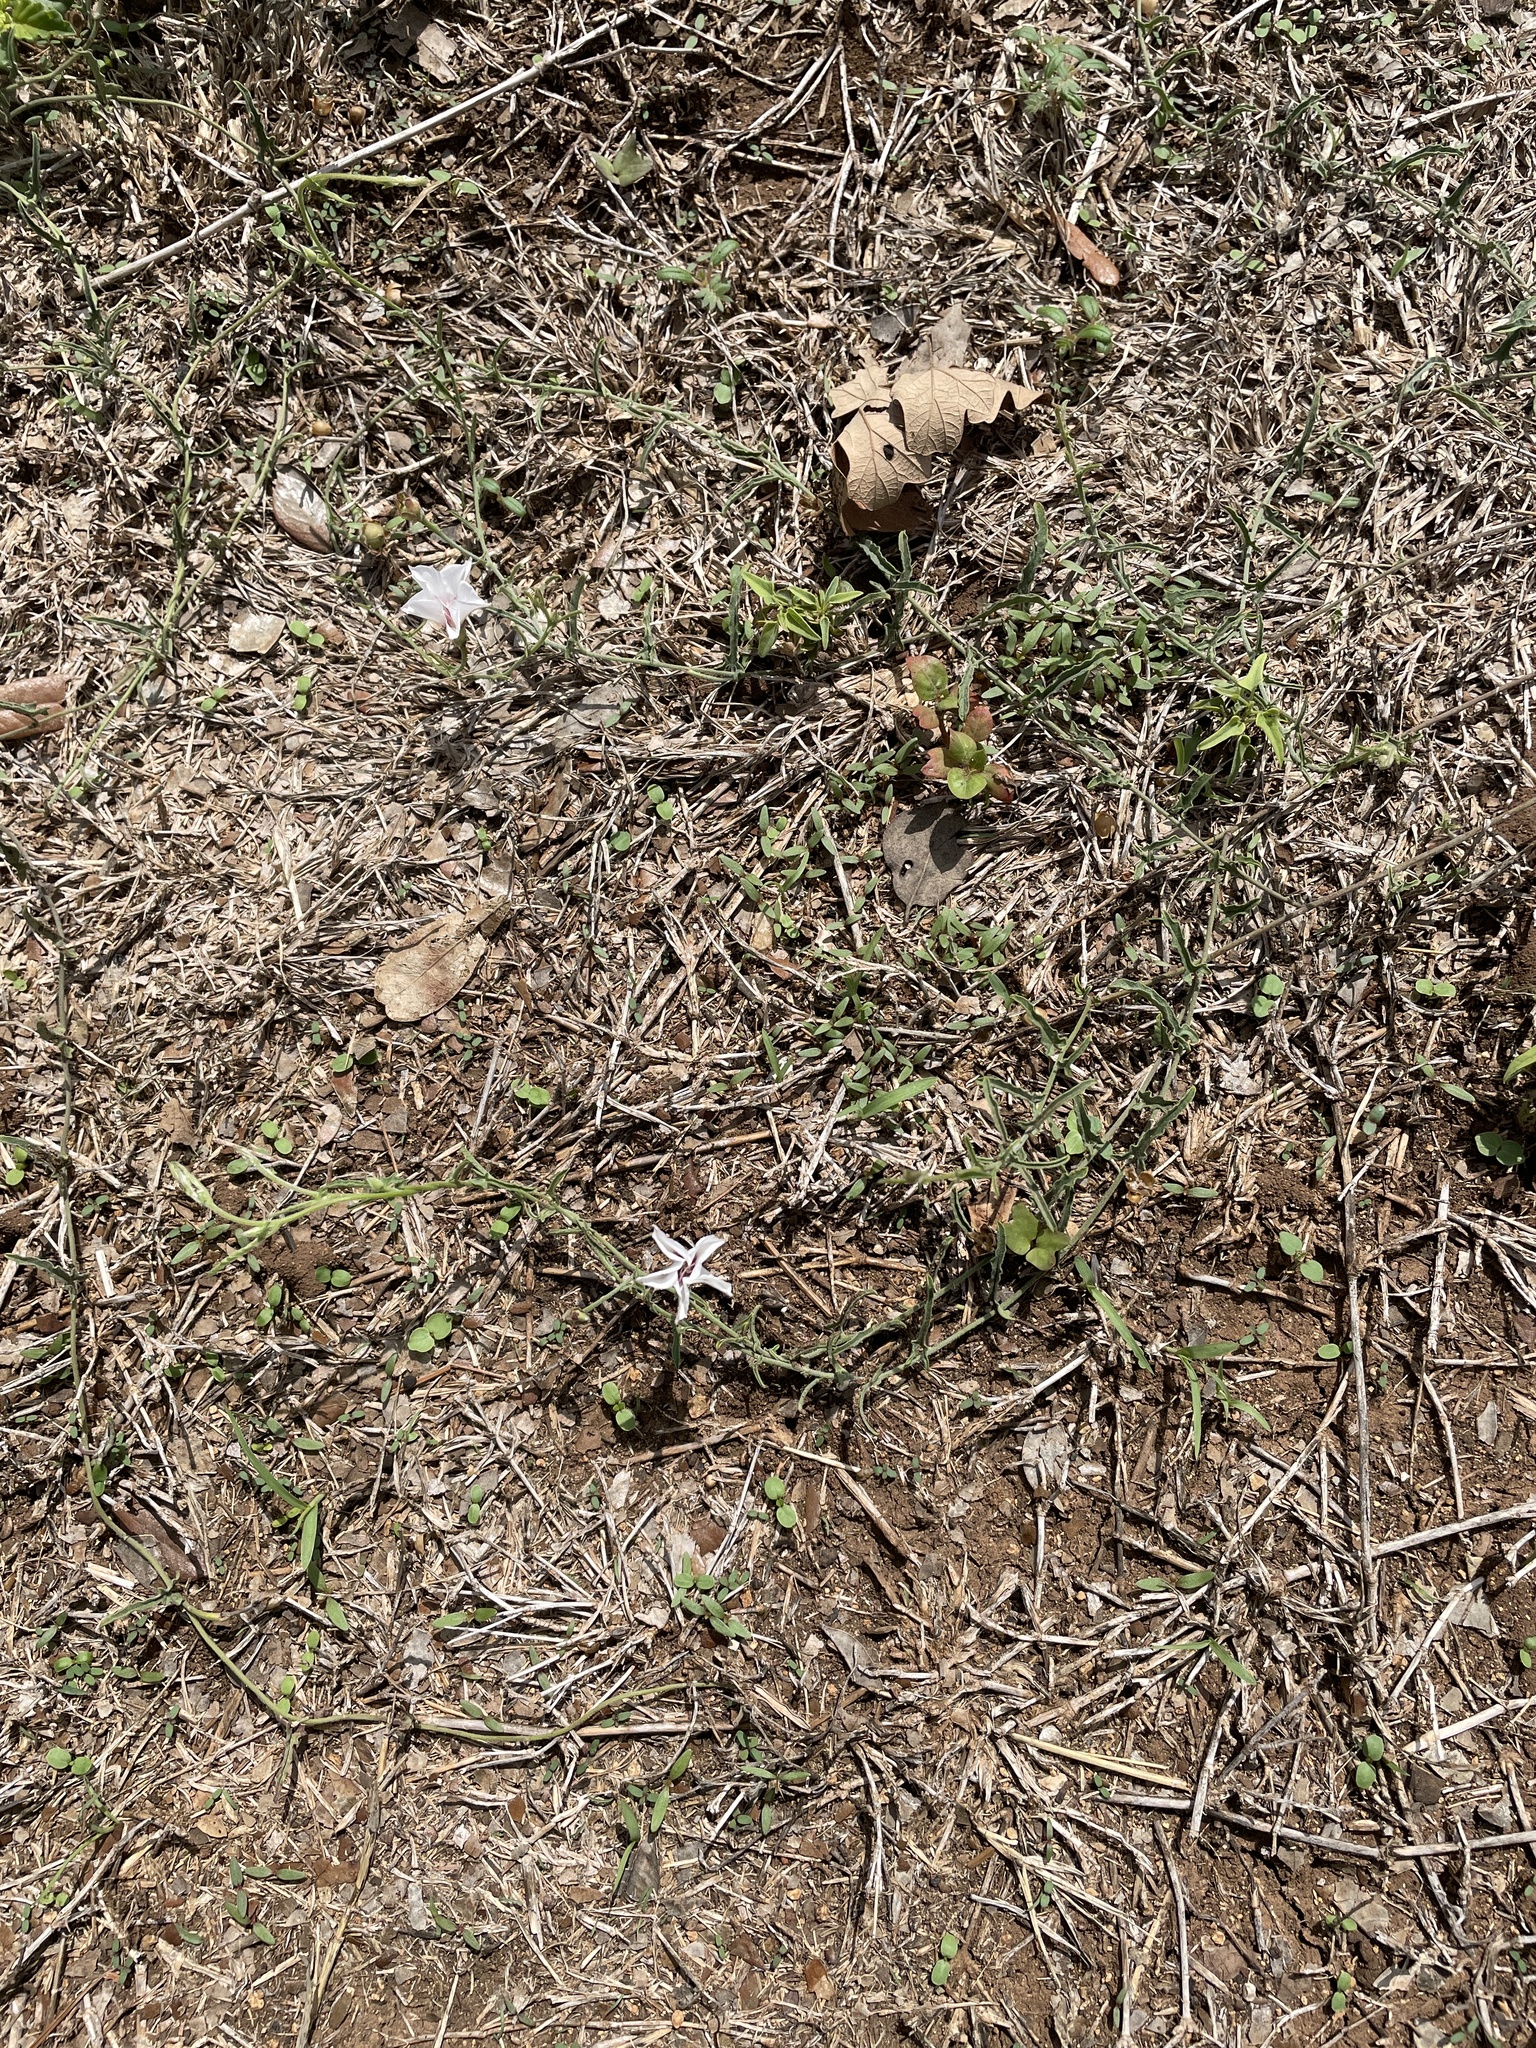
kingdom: Plantae
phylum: Tracheophyta
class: Magnoliopsida
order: Solanales
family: Convolvulaceae
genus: Convolvulus
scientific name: Convolvulus equitans
